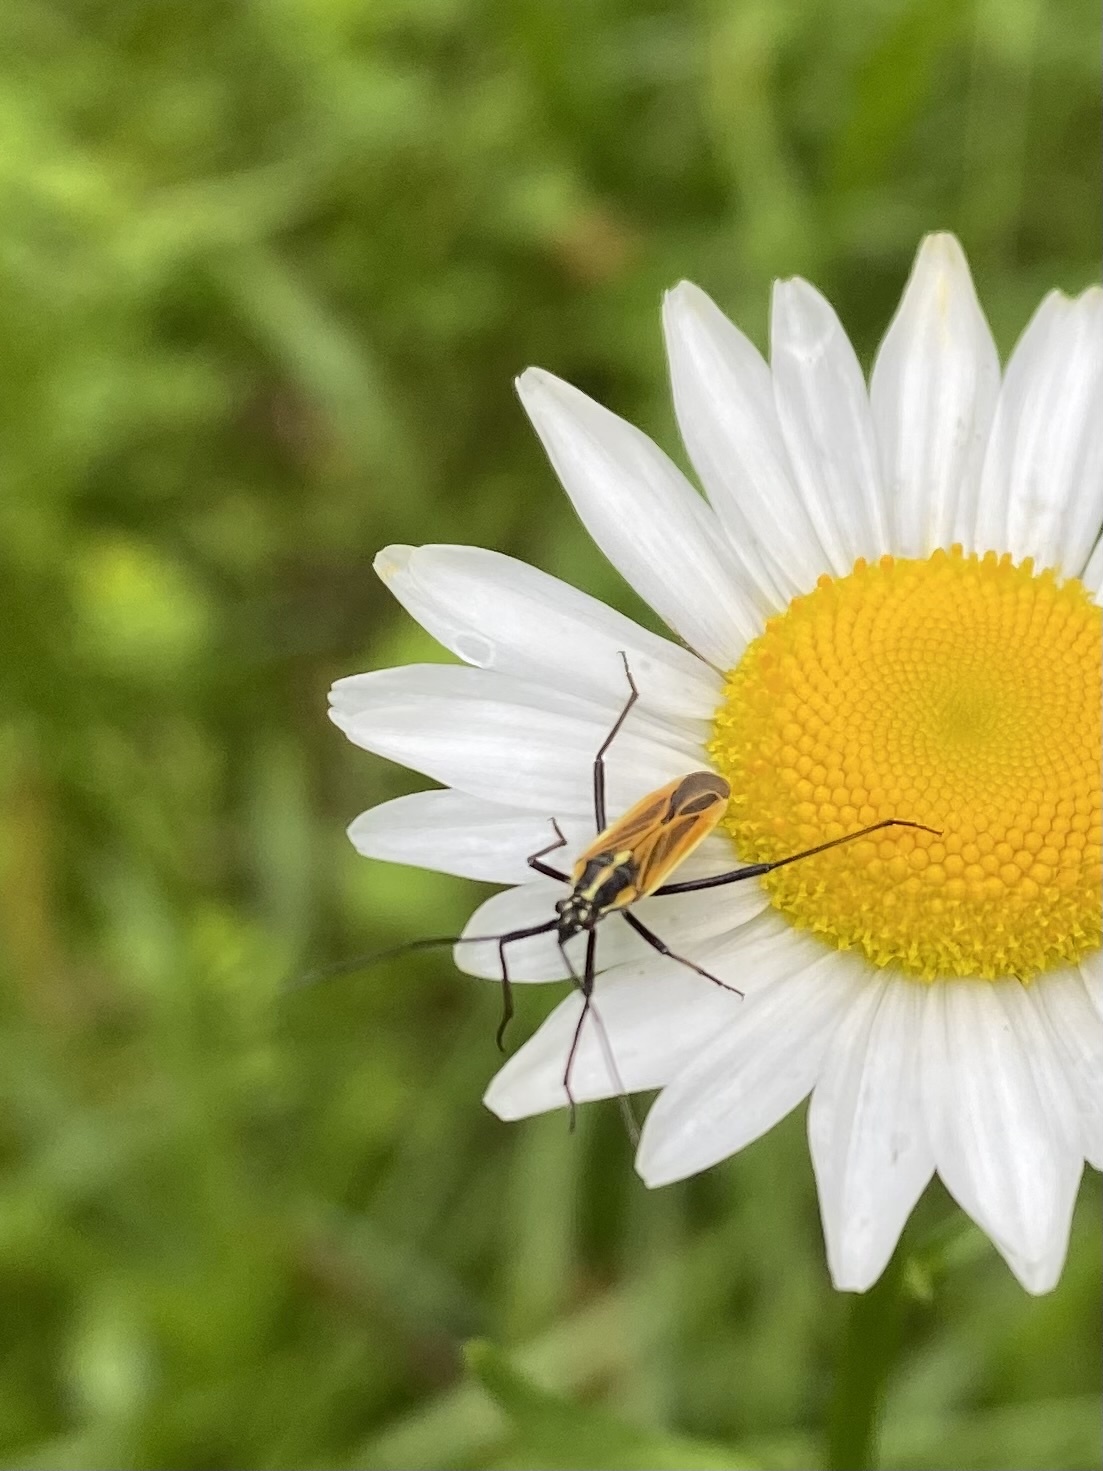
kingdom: Animalia
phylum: Arthropoda
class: Insecta
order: Hemiptera
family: Miridae
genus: Leptopterna
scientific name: Leptopterna dolabrata
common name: Meadow plant bug
